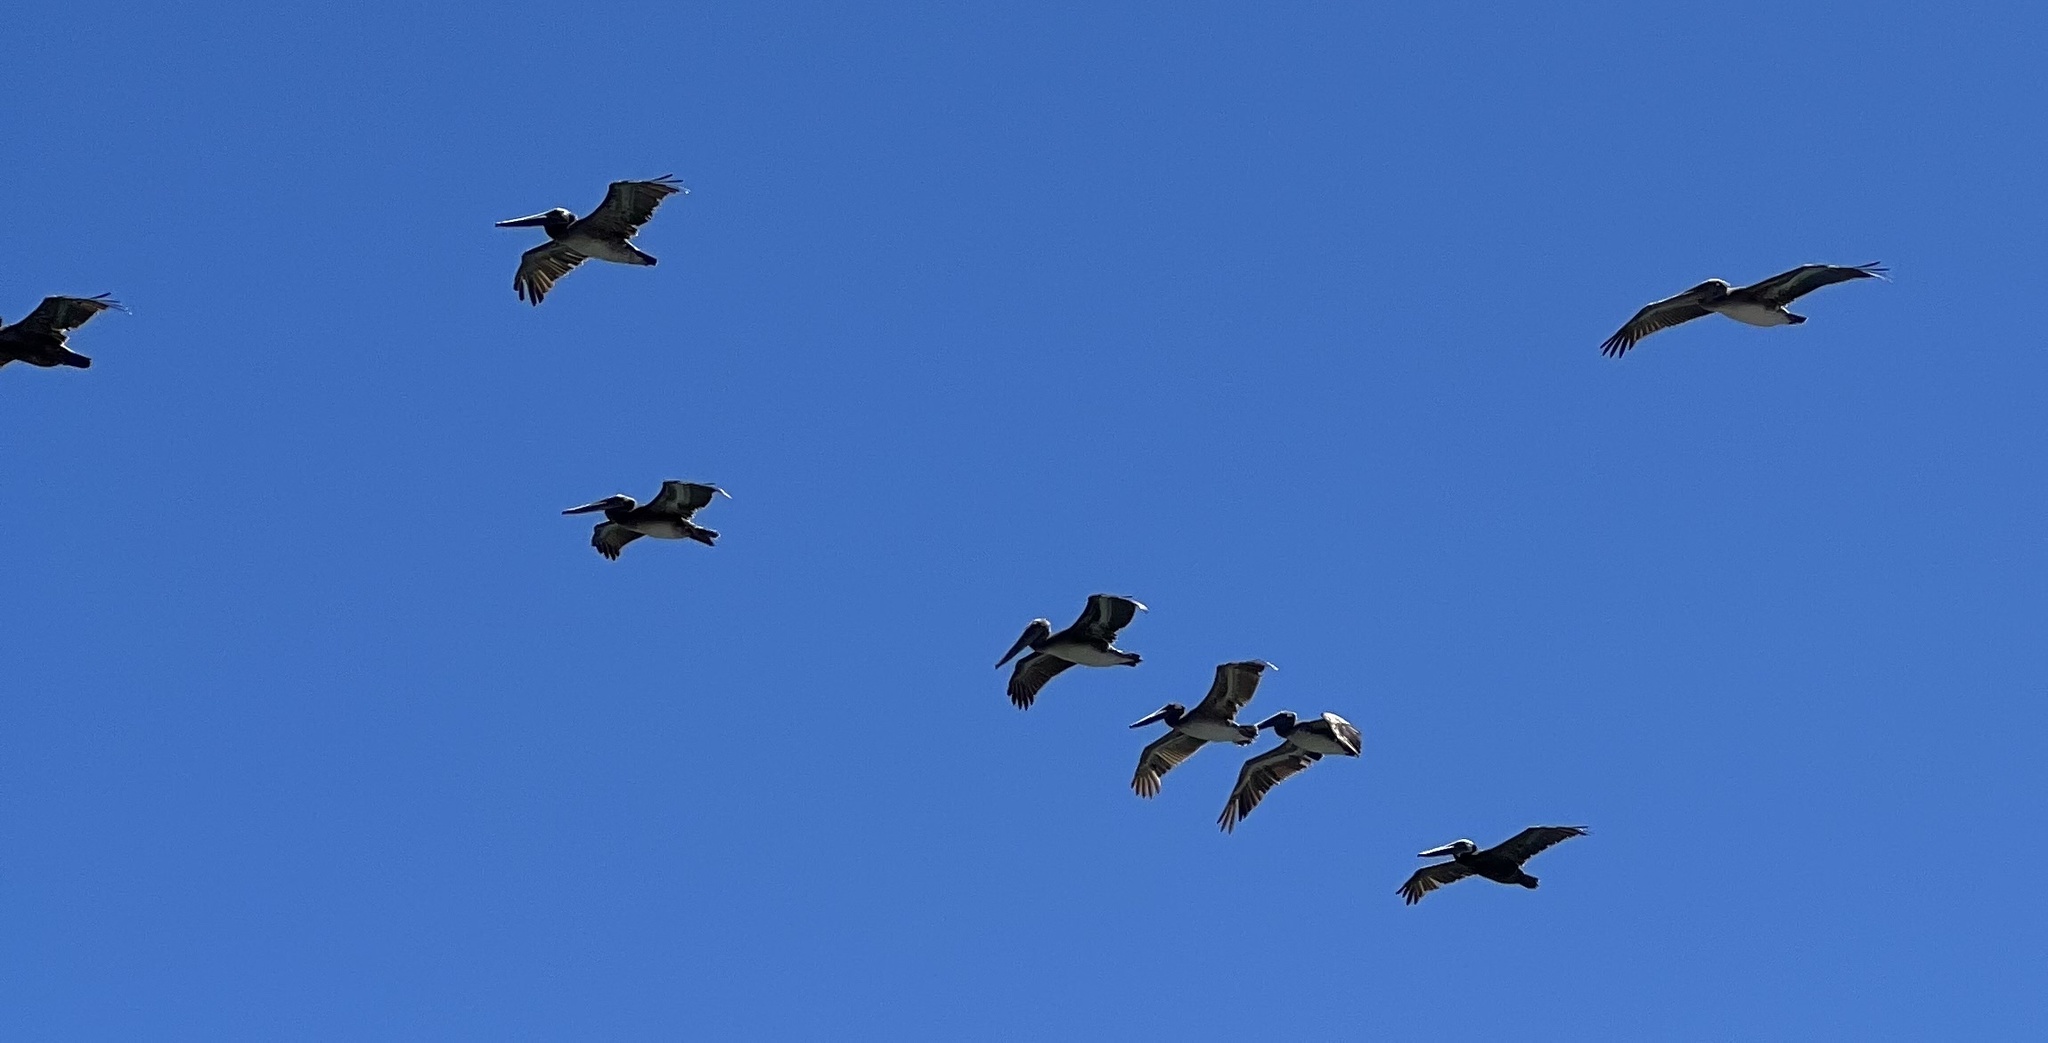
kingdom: Animalia
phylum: Chordata
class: Aves
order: Pelecaniformes
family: Pelecanidae
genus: Pelecanus
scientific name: Pelecanus occidentalis
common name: Brown pelican
